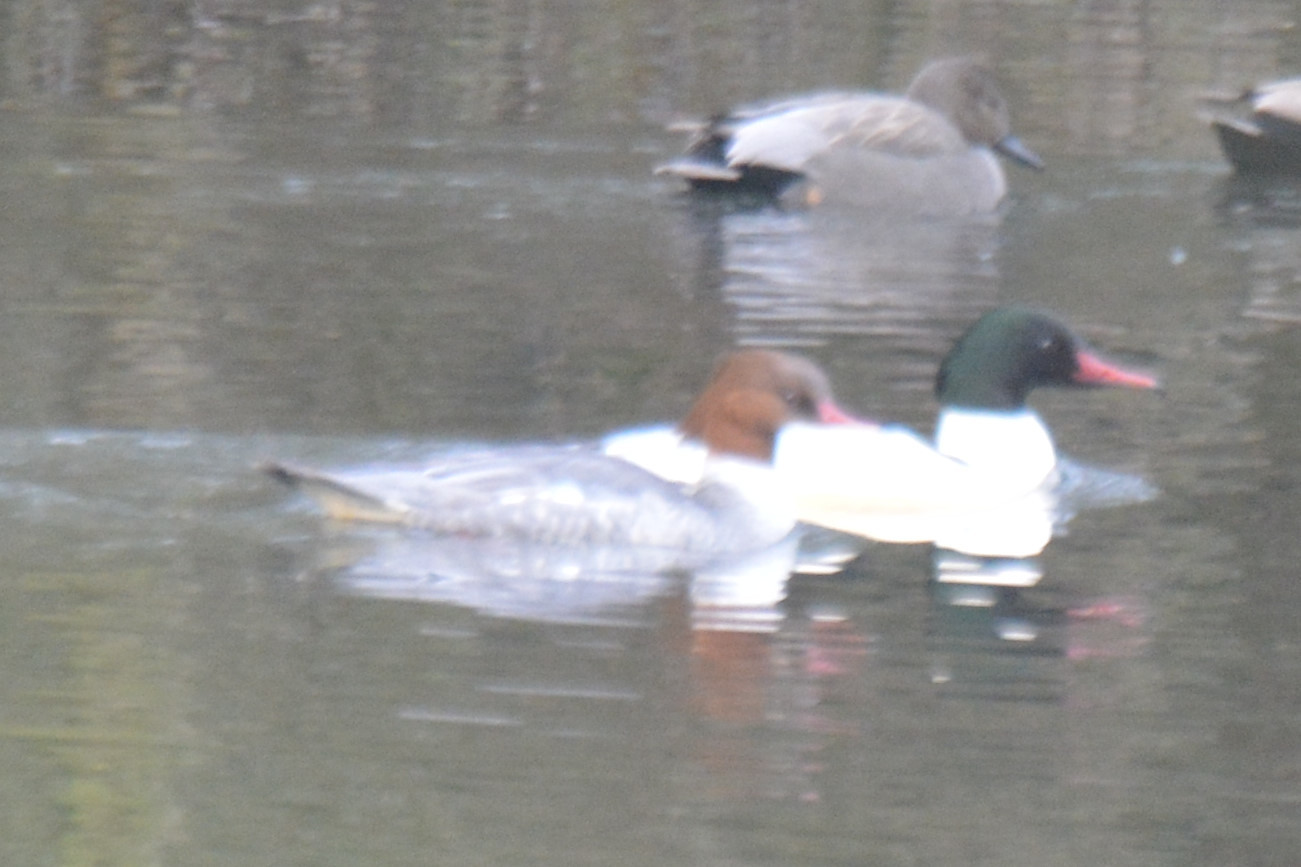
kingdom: Animalia
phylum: Chordata
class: Aves
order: Anseriformes
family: Anatidae
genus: Mergus
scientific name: Mergus merganser
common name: Common merganser
